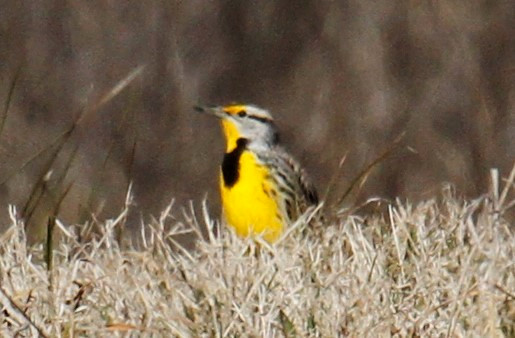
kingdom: Animalia
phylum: Chordata
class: Aves
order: Passeriformes
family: Icteridae
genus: Sturnella
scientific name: Sturnella magna
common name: Eastern meadowlark
